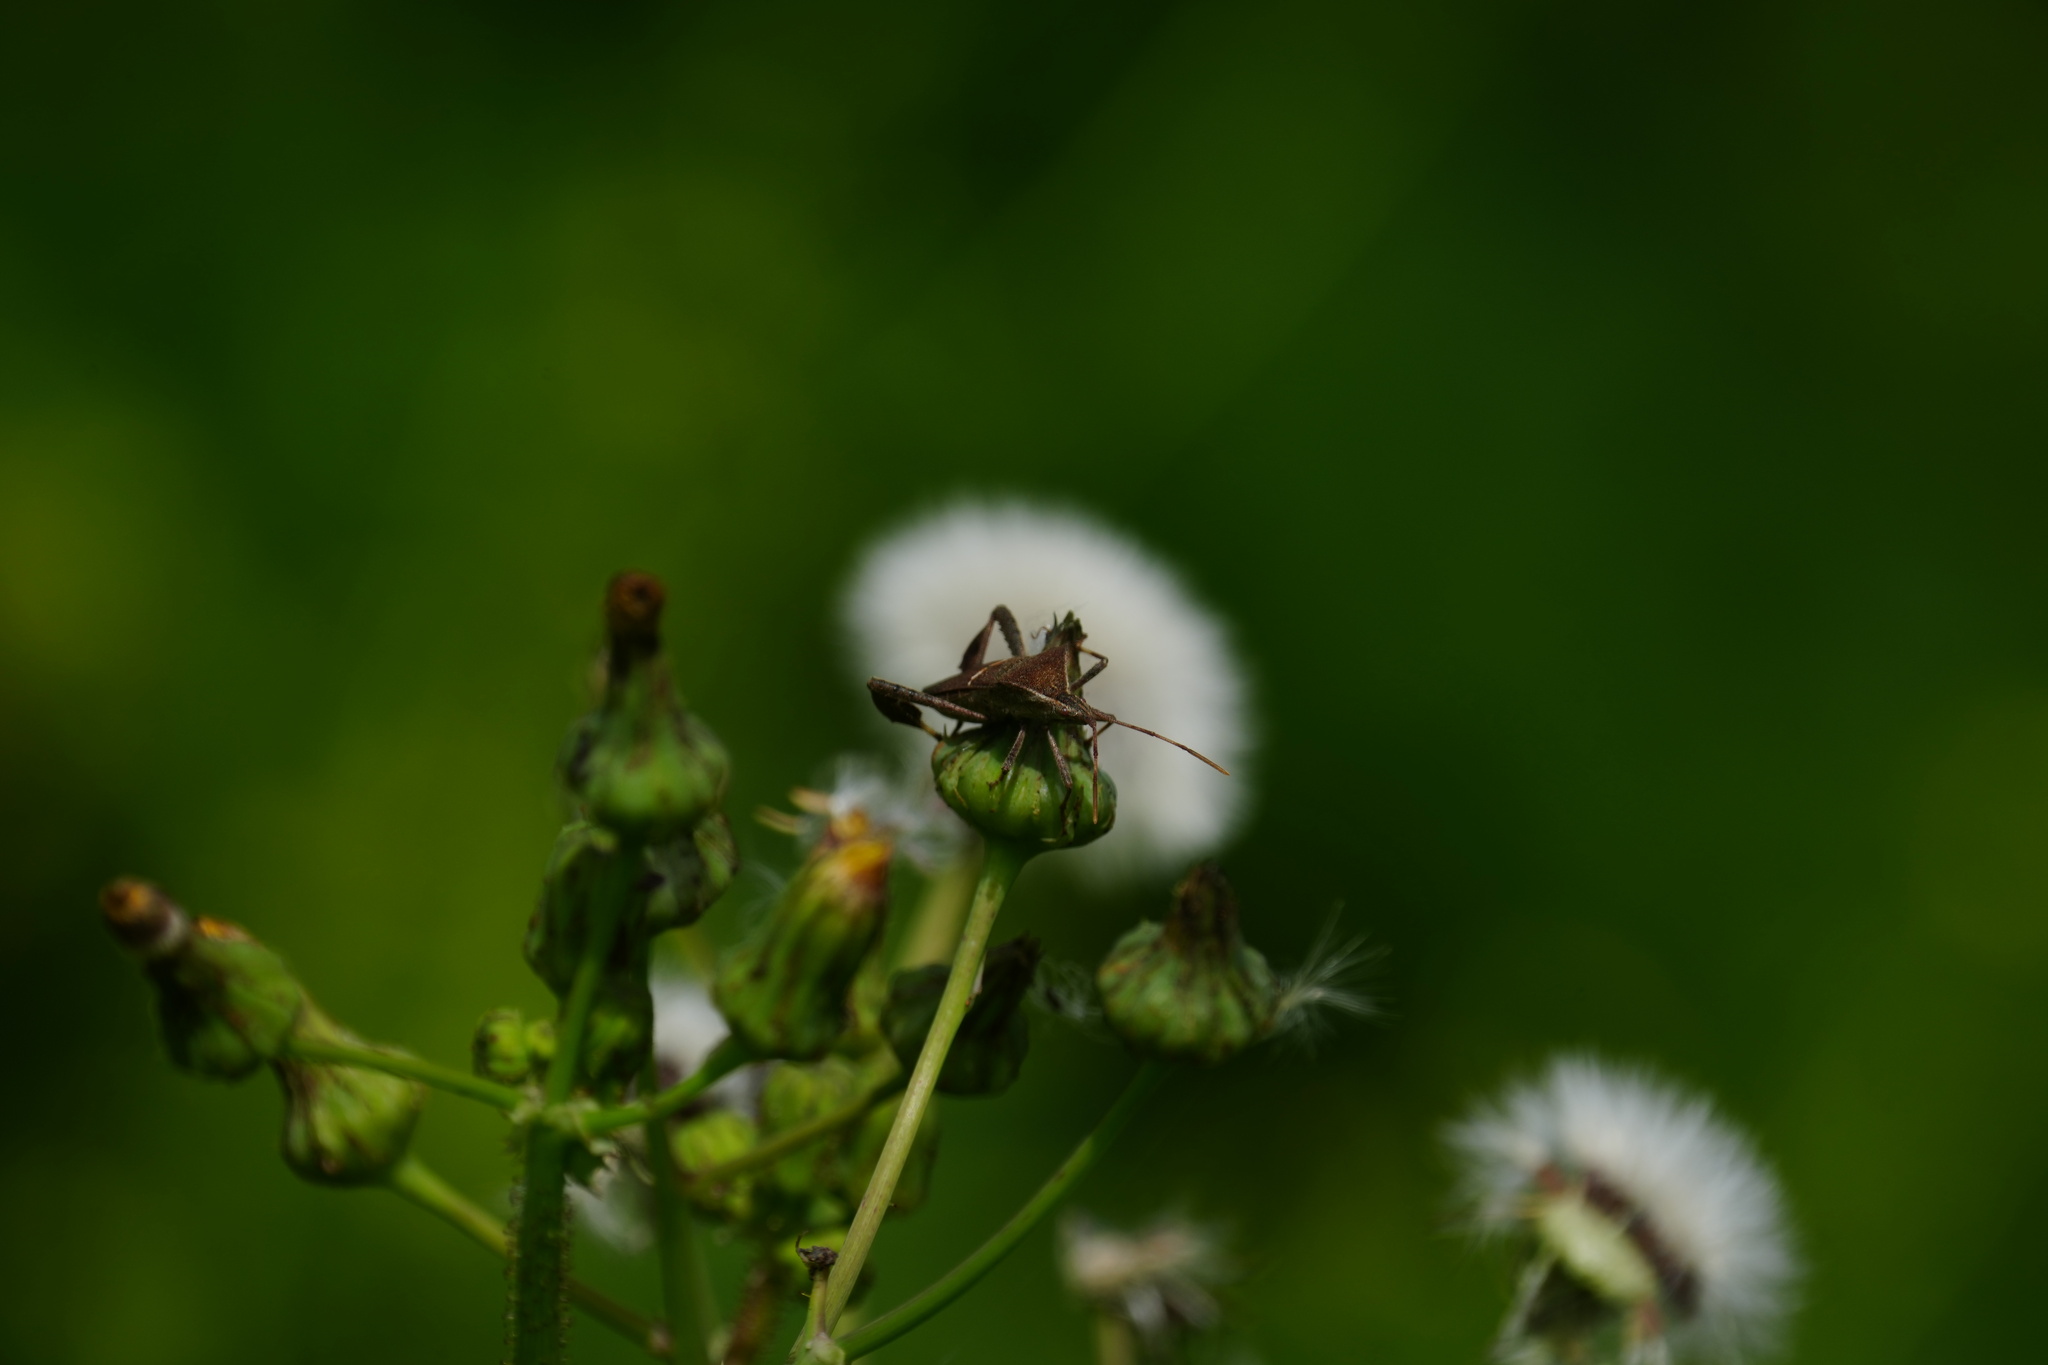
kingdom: Animalia
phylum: Arthropoda
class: Insecta
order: Hemiptera
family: Coreidae
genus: Leptoglossus
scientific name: Leptoglossus phyllopus
